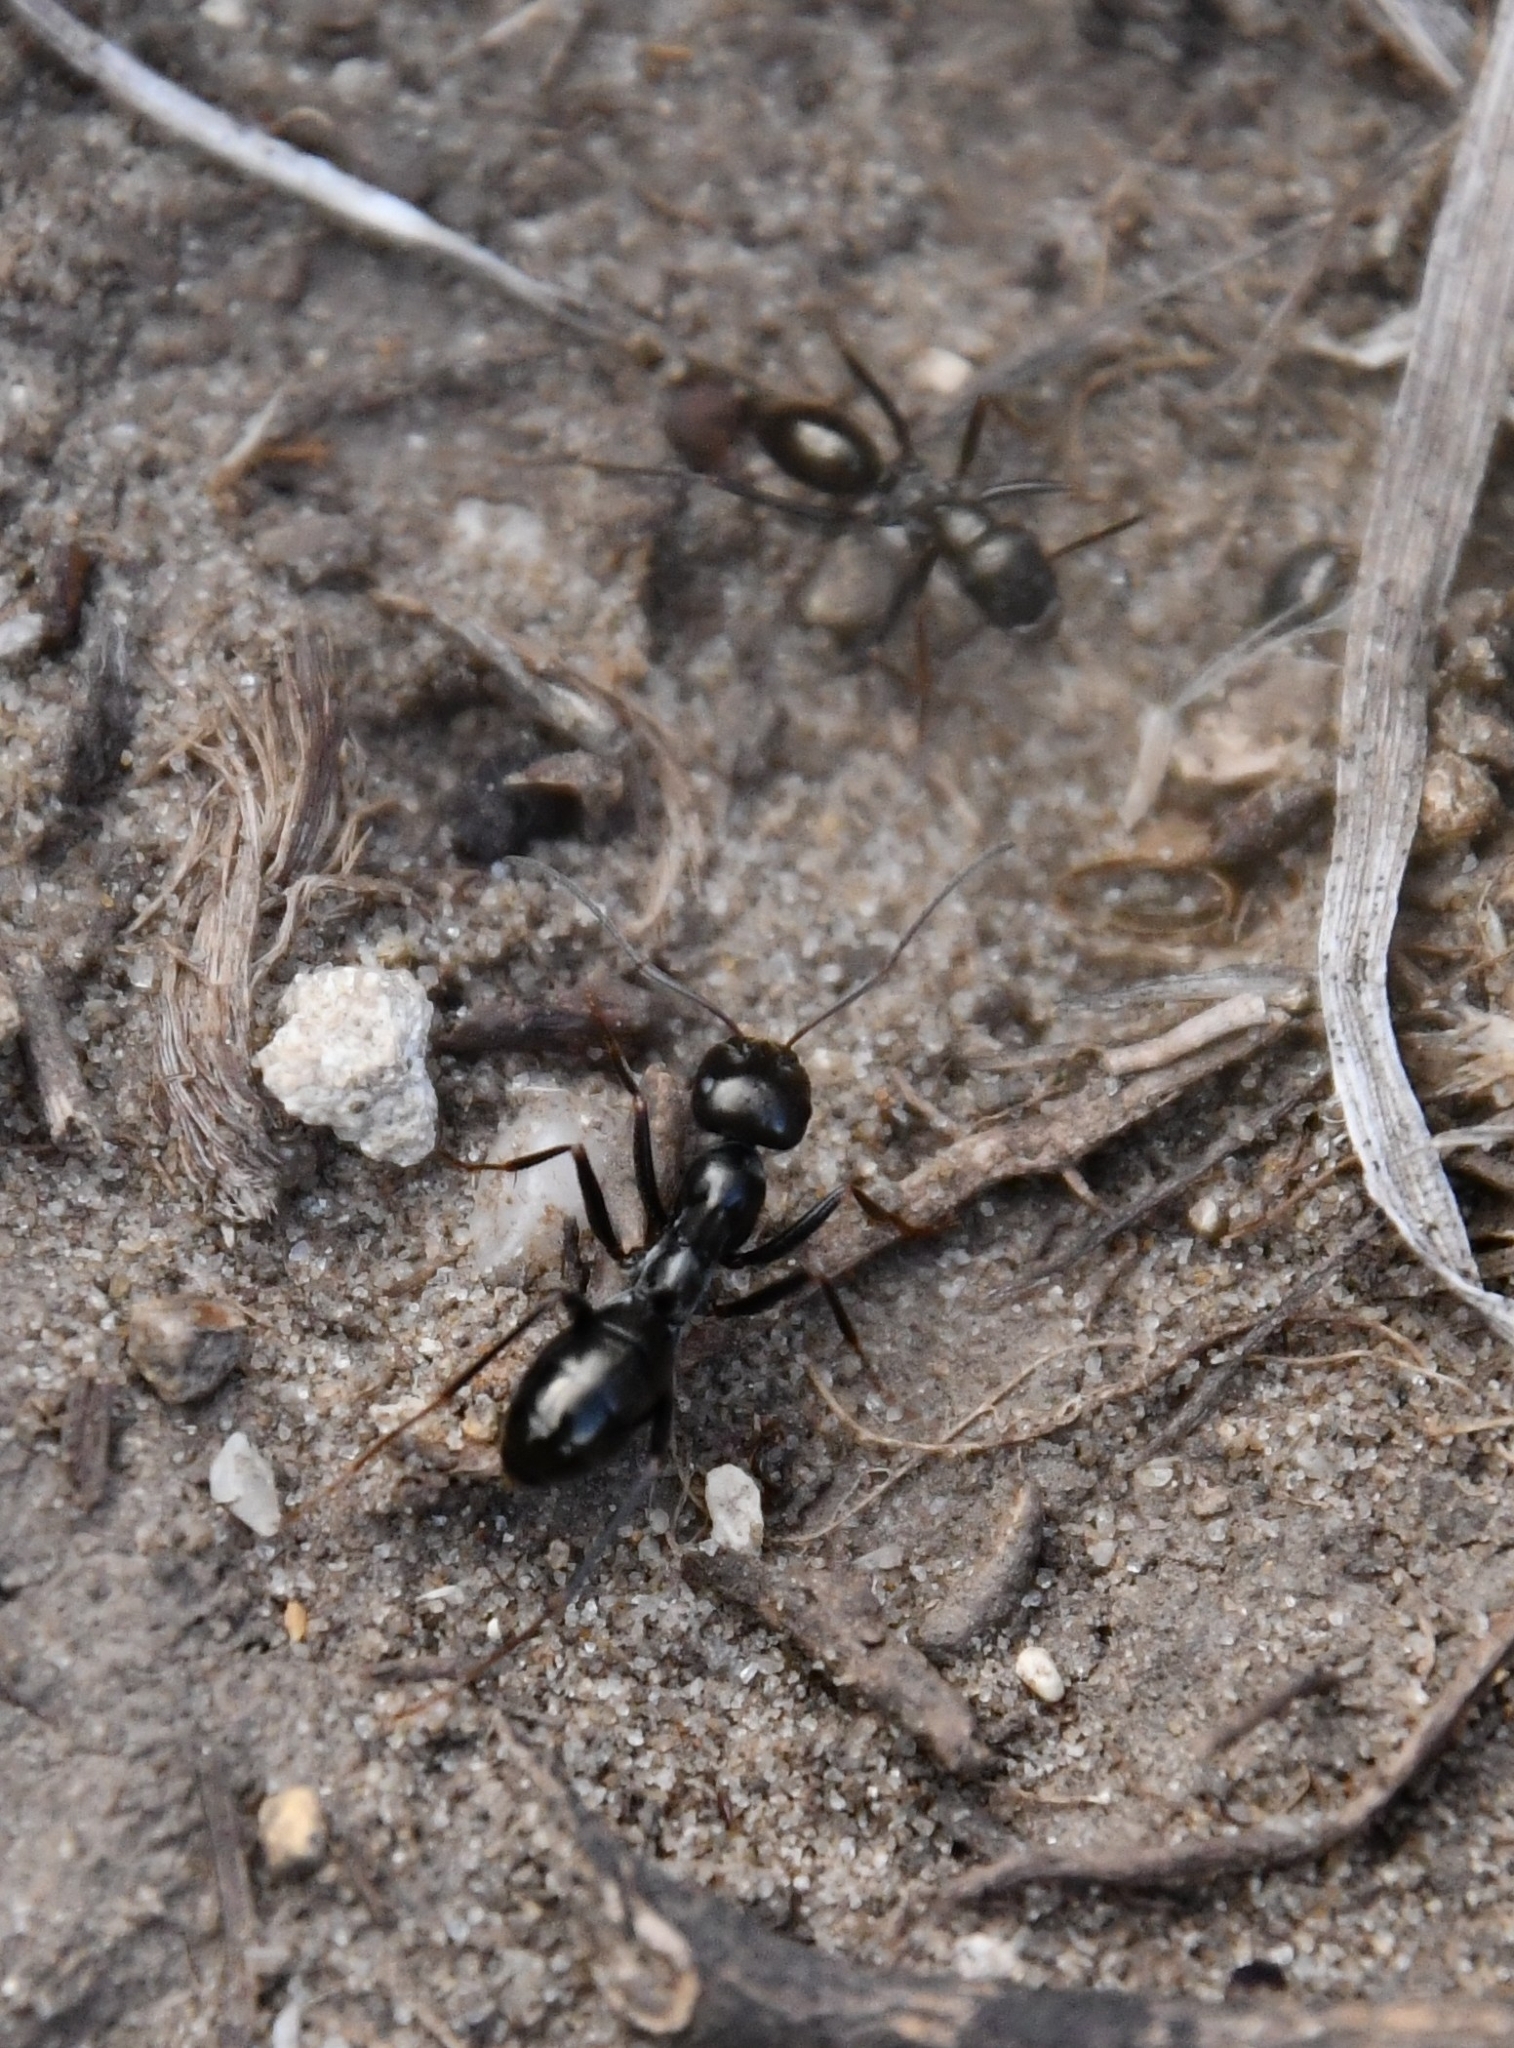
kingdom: Animalia
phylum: Arthropoda
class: Insecta
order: Hymenoptera
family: Formicidae
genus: Cataglyphis
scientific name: Cataglyphis aenescens
